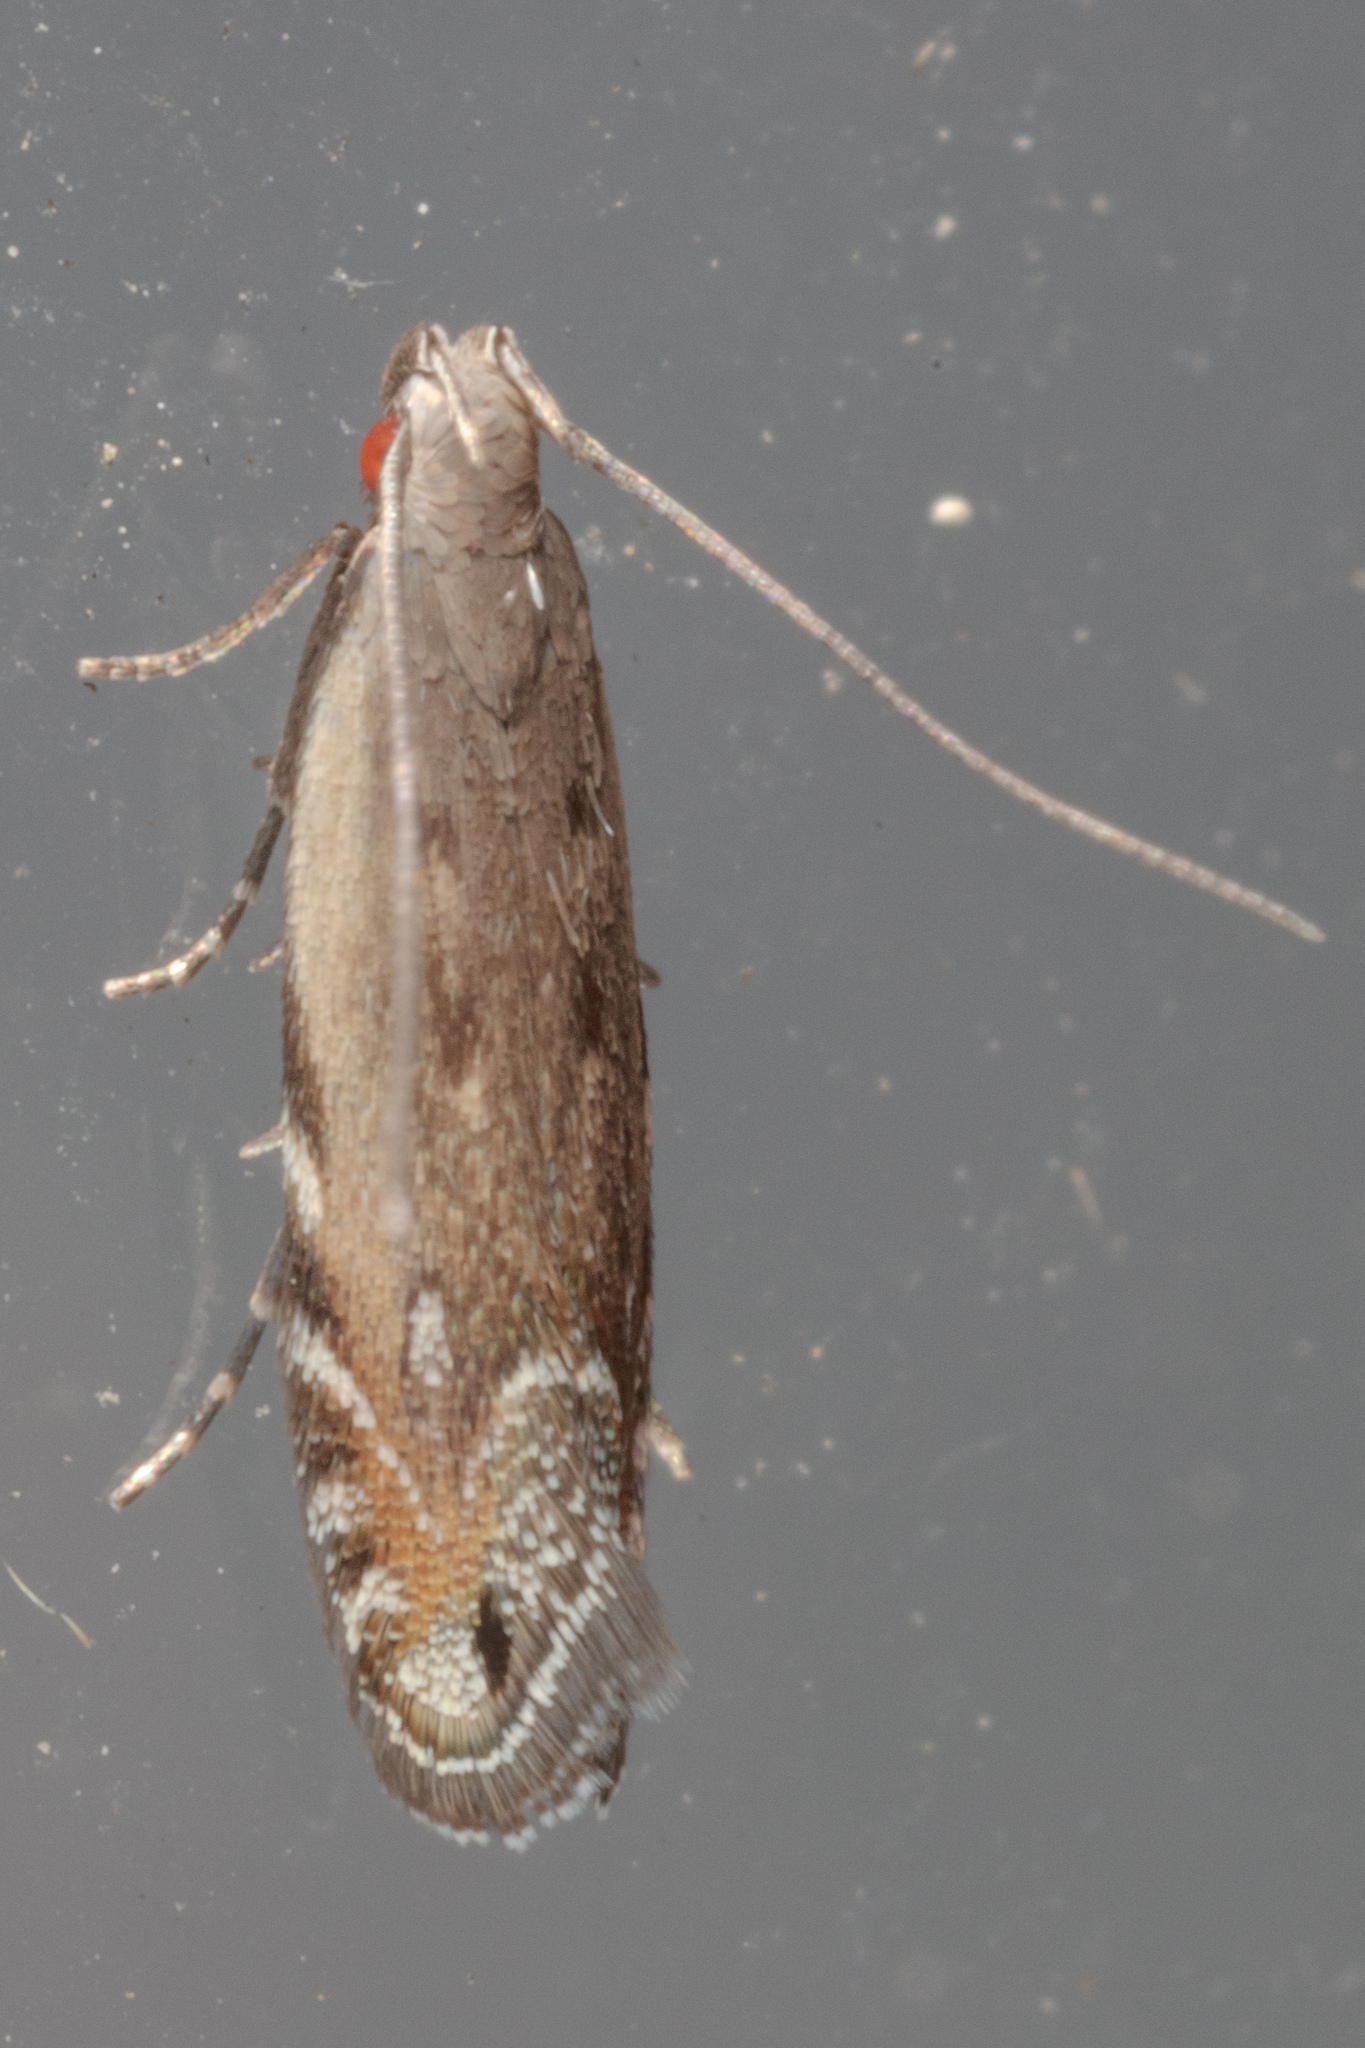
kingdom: Animalia
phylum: Arthropoda
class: Insecta
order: Lepidoptera
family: Gelechiidae
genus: Battaristis
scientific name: Battaristis concinnusella
